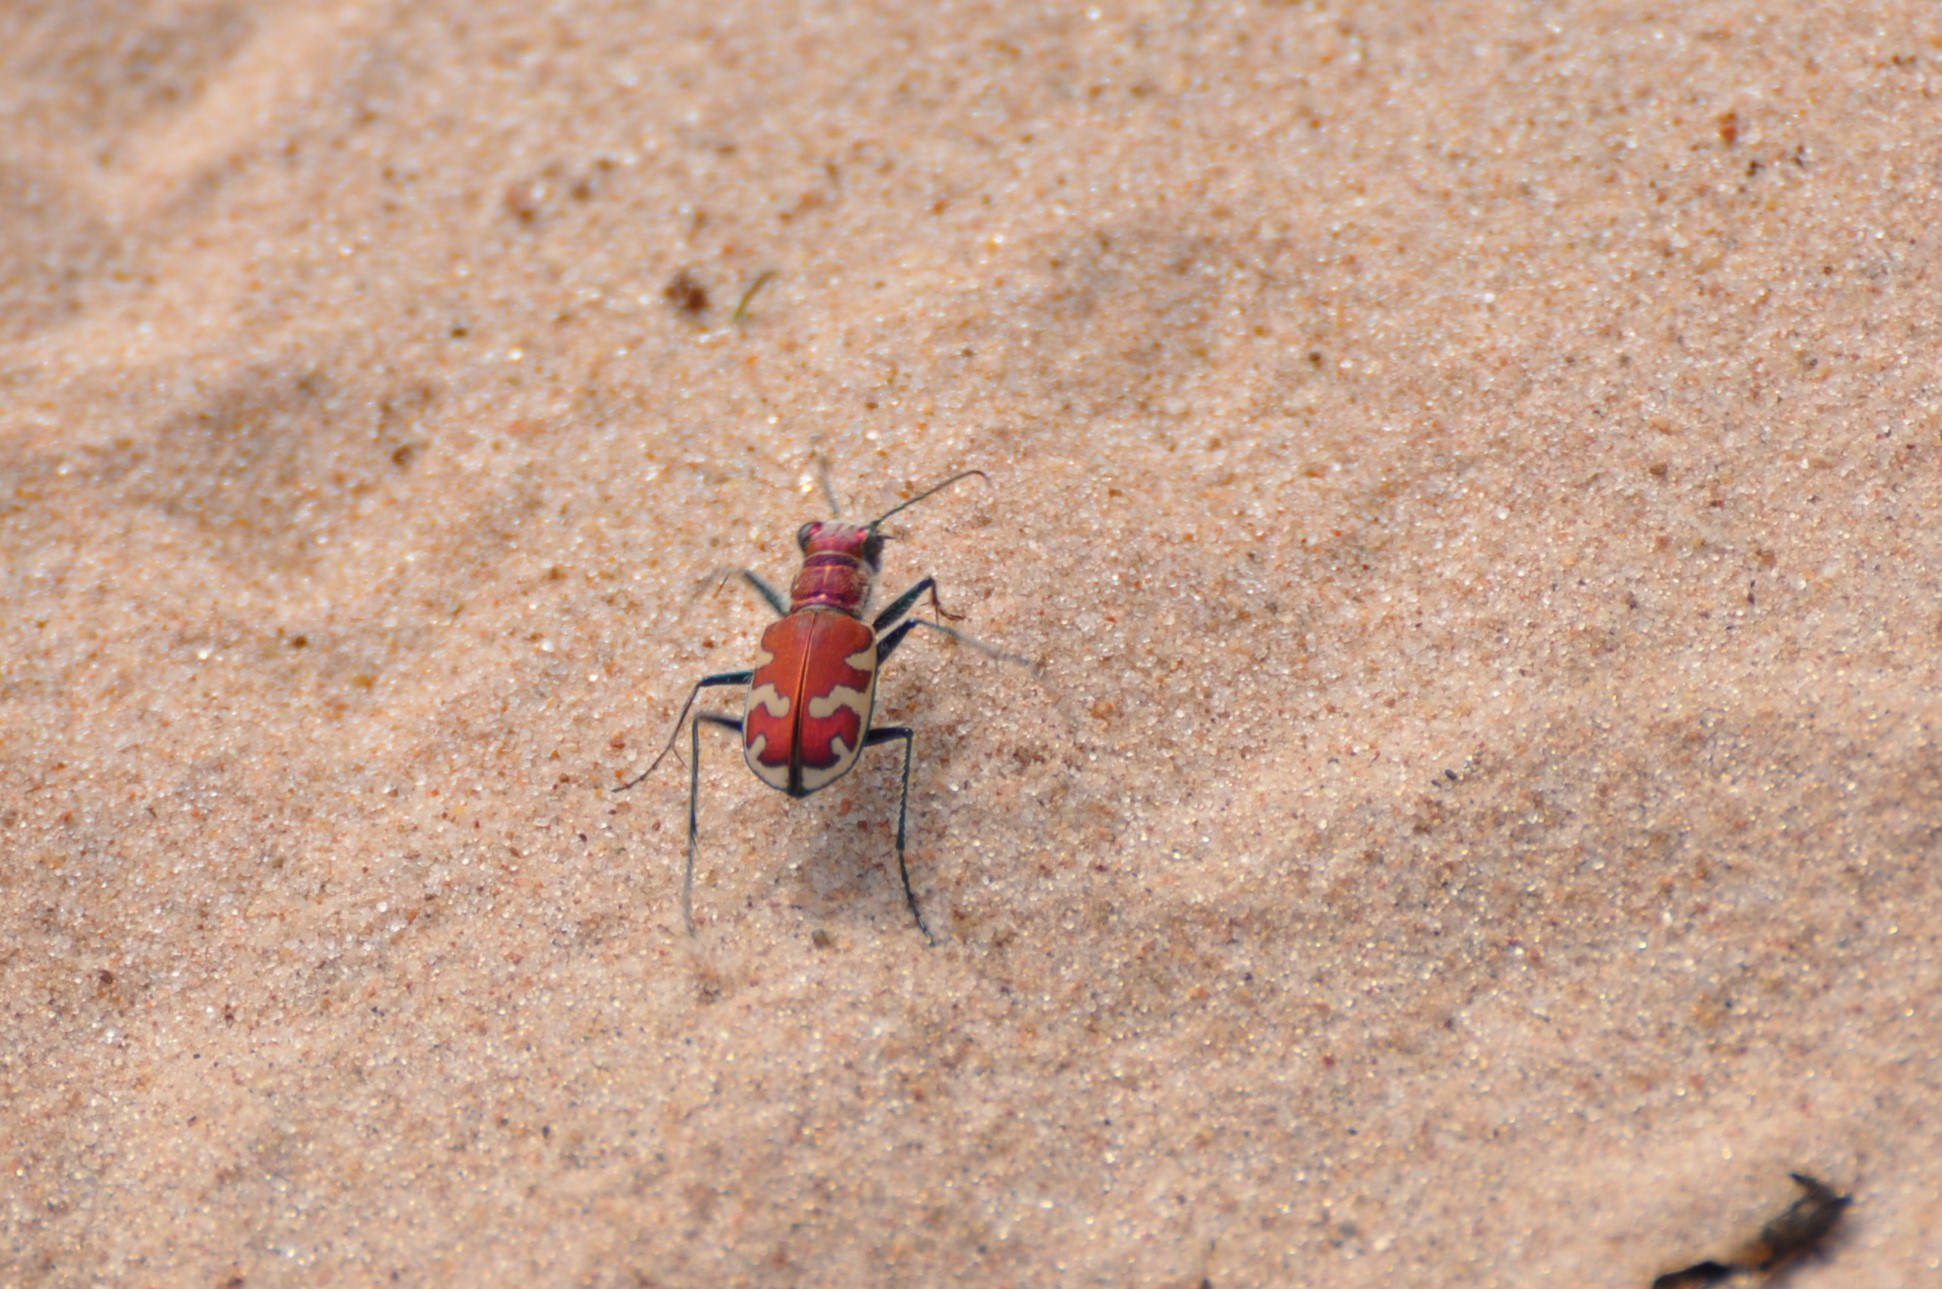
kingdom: Animalia
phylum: Arthropoda
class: Insecta
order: Coleoptera
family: Carabidae
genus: Cicindela
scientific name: Cicindela formosa
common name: Big sand tiger beetle
